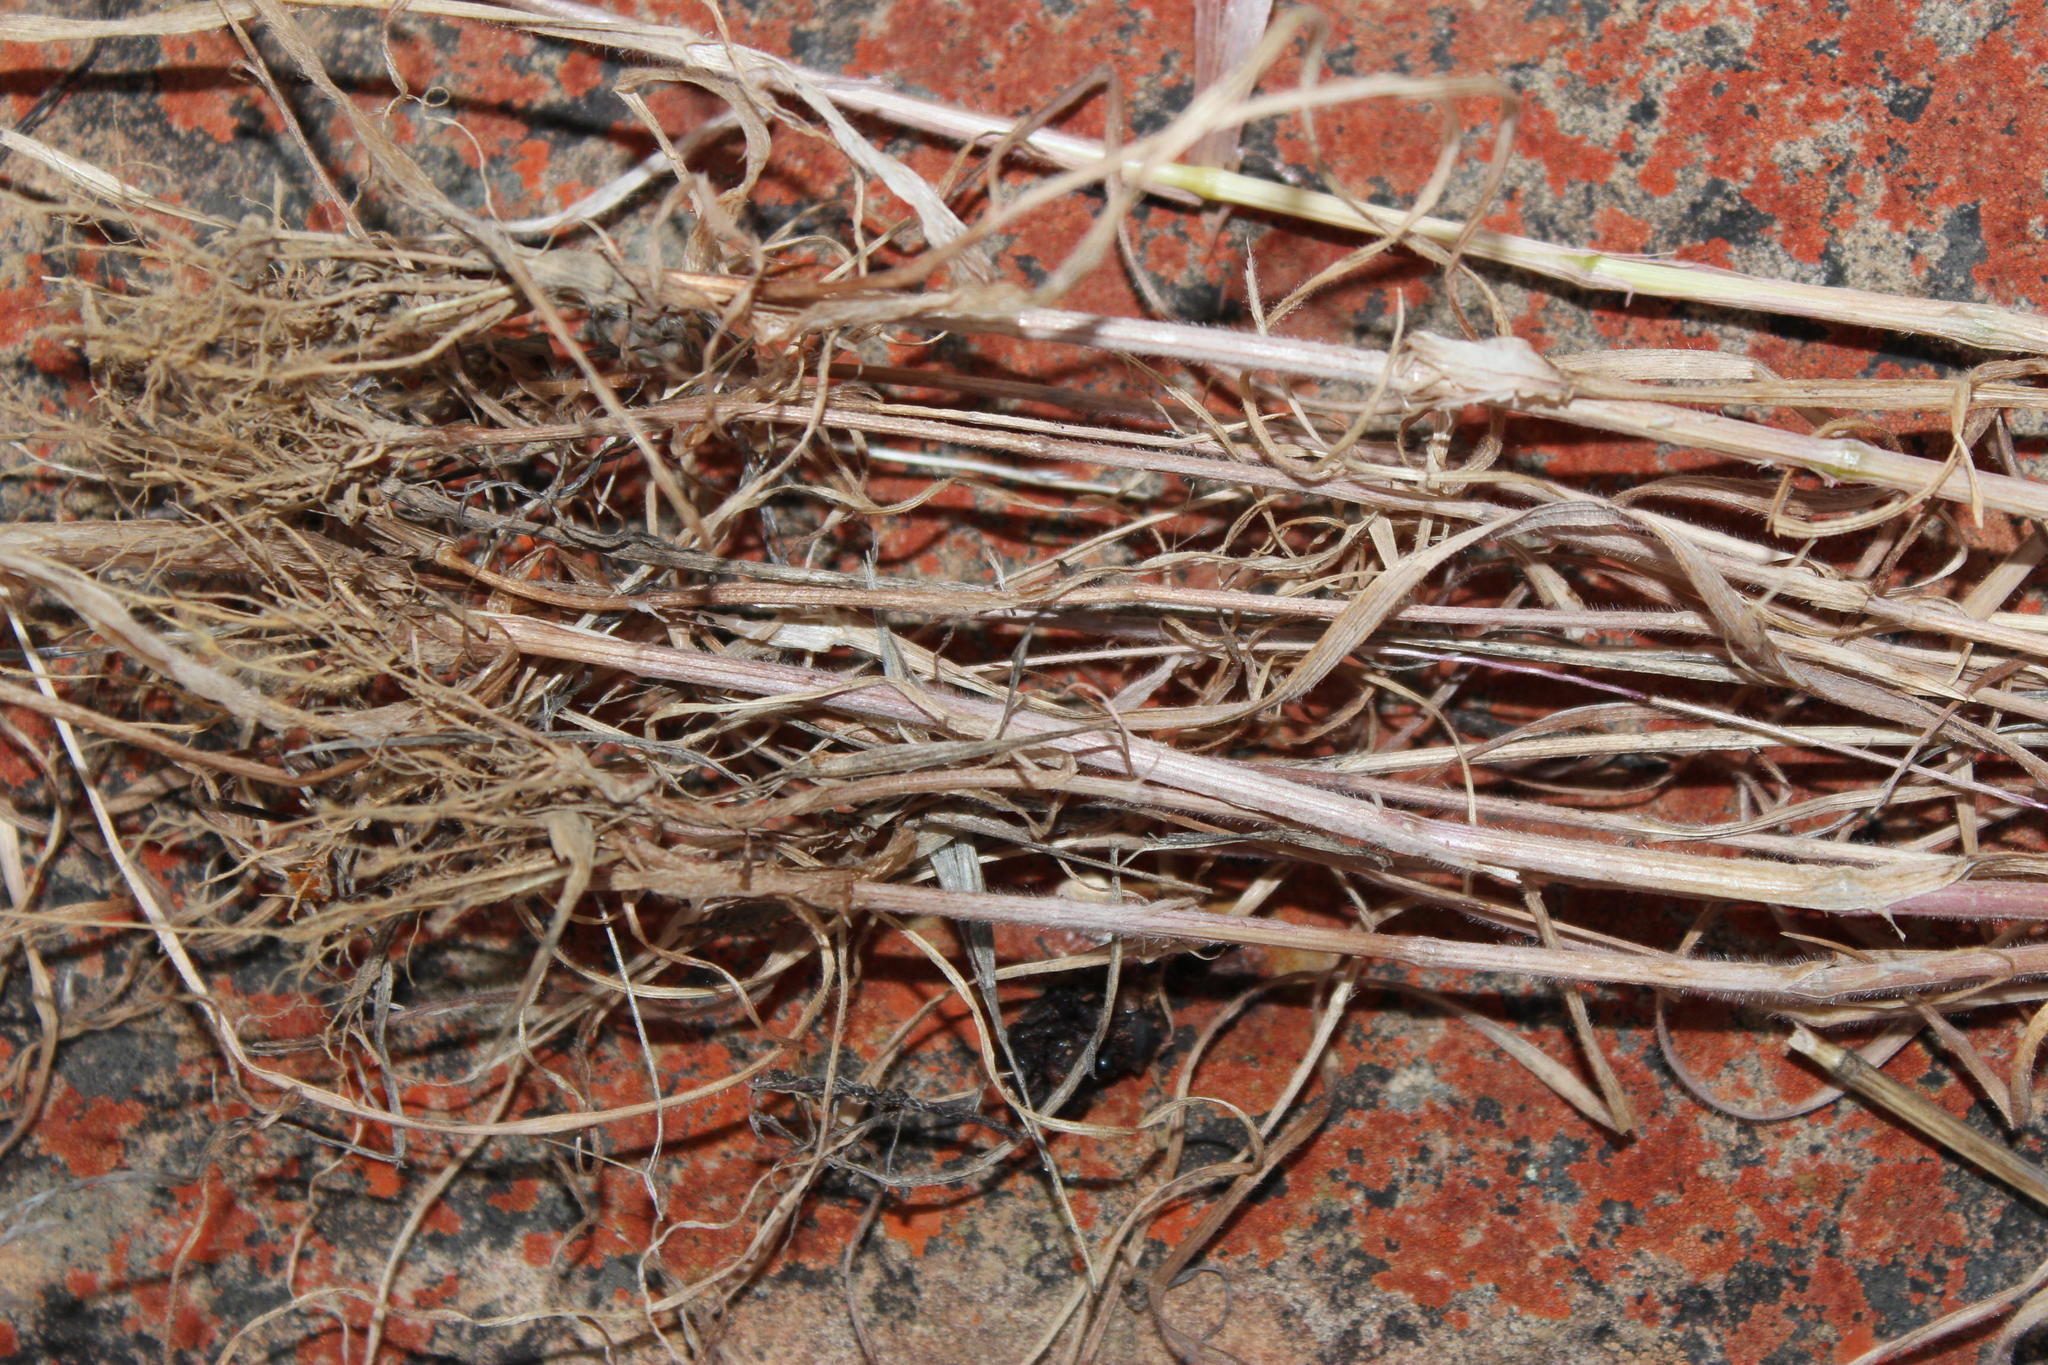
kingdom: Plantae
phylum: Tracheophyta
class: Liliopsida
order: Poales
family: Poaceae
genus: Bromus
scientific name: Bromus pectinatus
